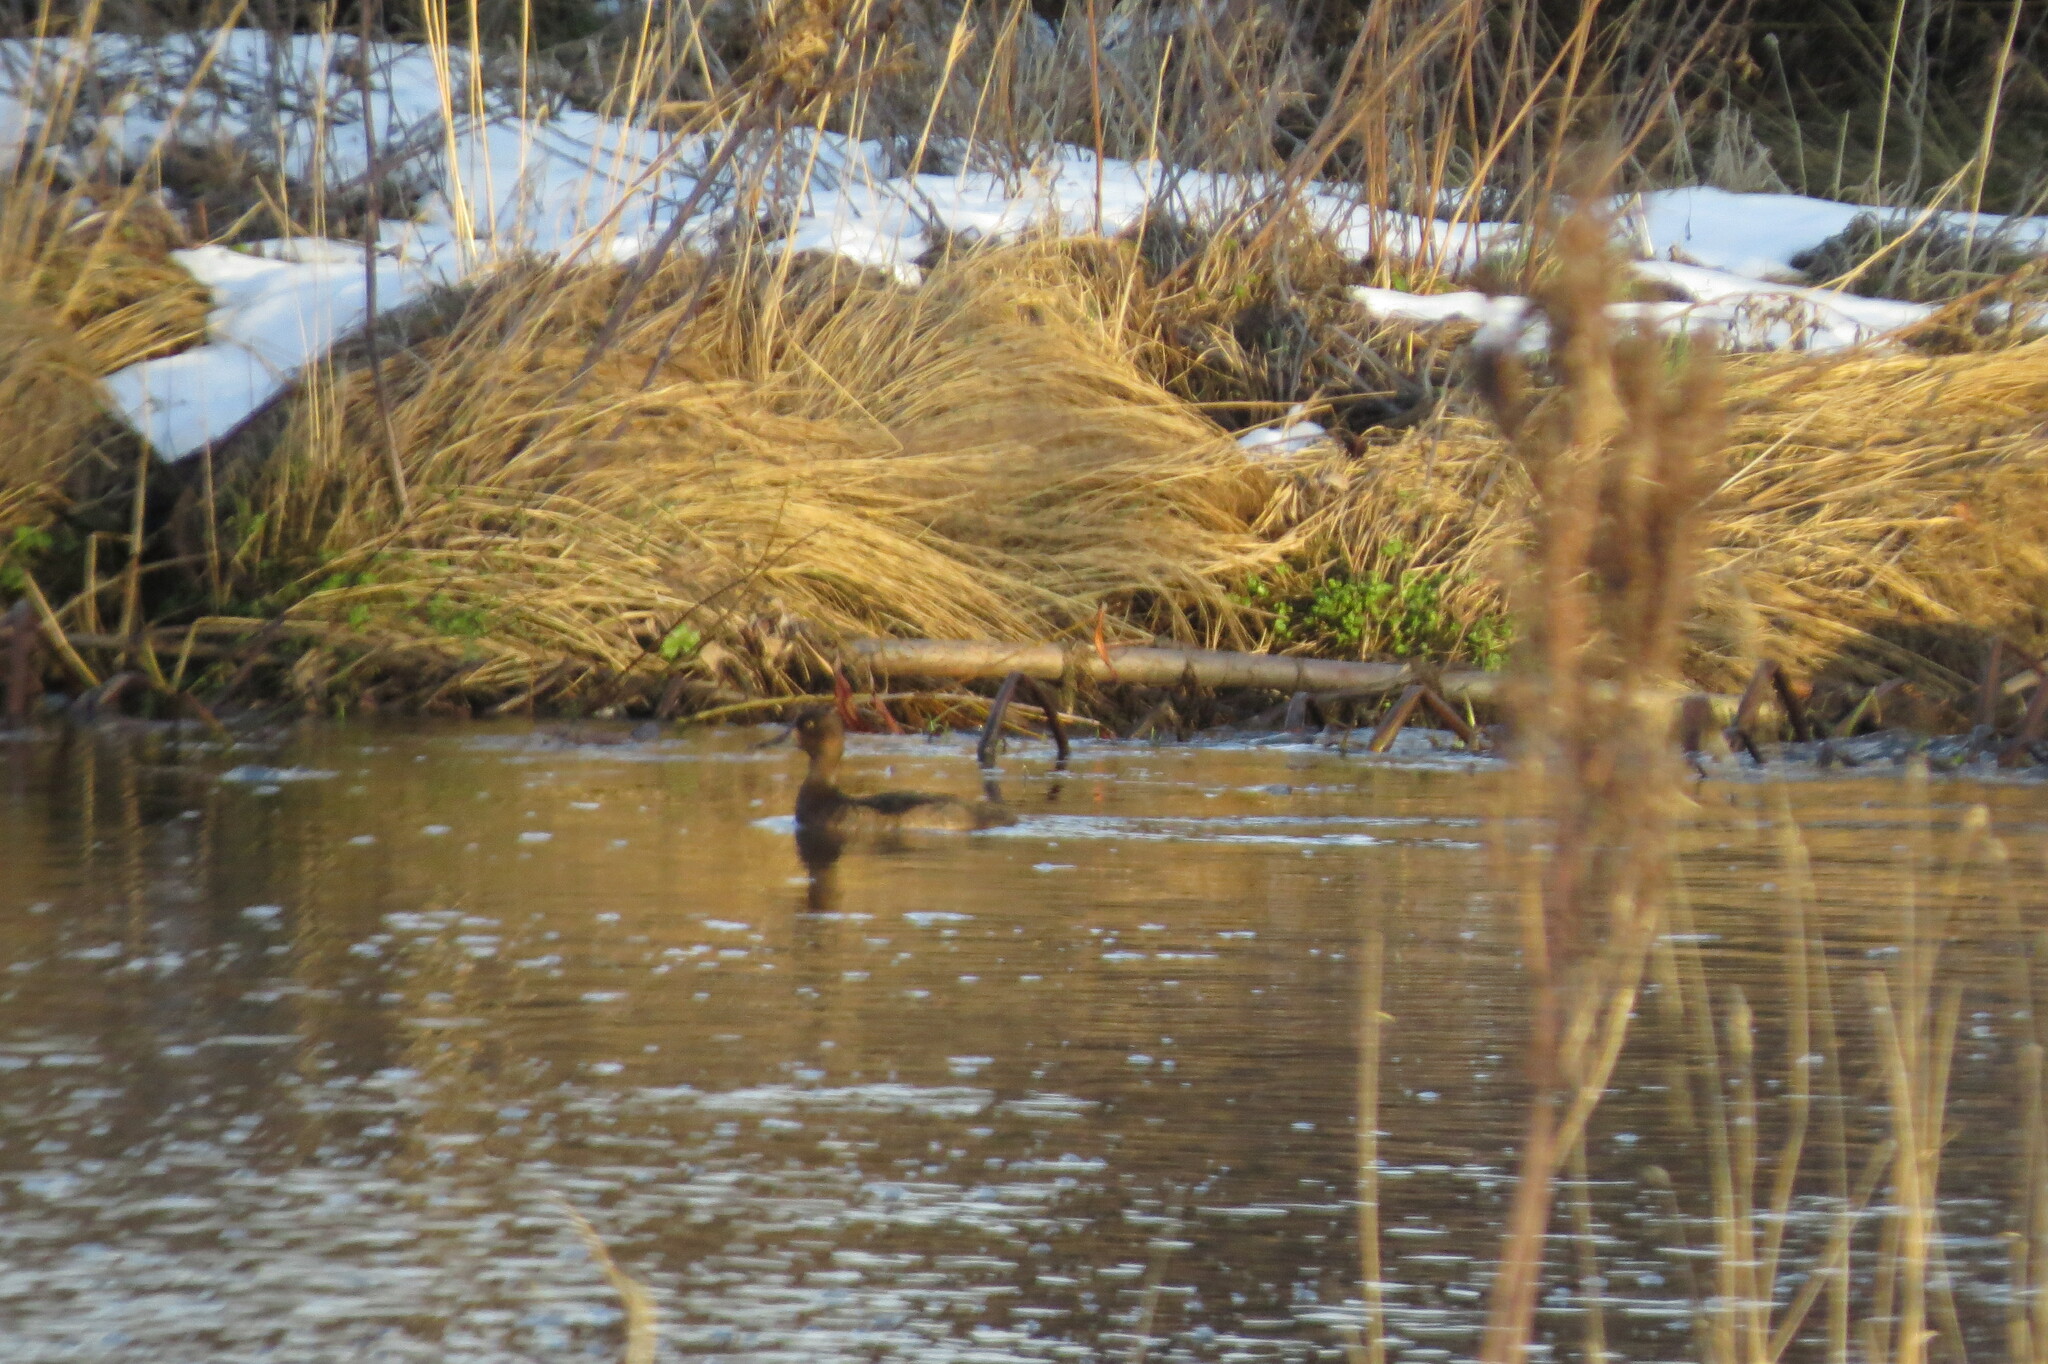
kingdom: Animalia
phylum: Chordata
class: Aves
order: Anseriformes
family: Anatidae
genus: Aythya
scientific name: Aythya fuligula
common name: Tufted duck
